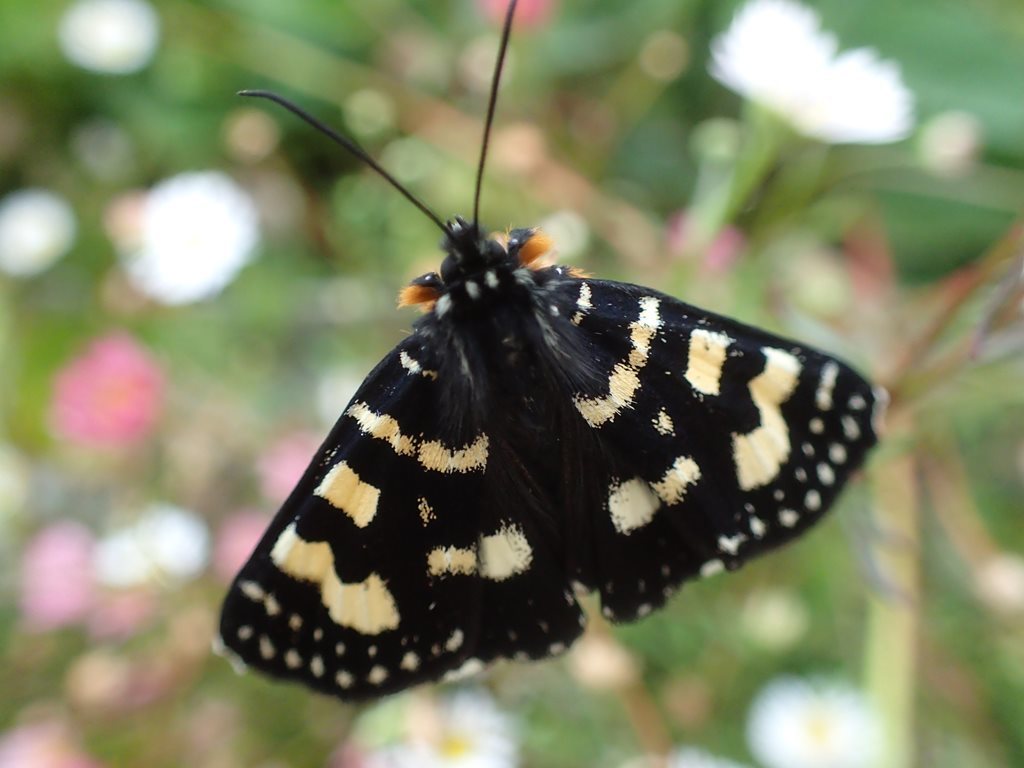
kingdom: Animalia
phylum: Arthropoda
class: Insecta
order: Lepidoptera
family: Noctuidae
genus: Phalaenoides
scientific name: Phalaenoides tristifica
